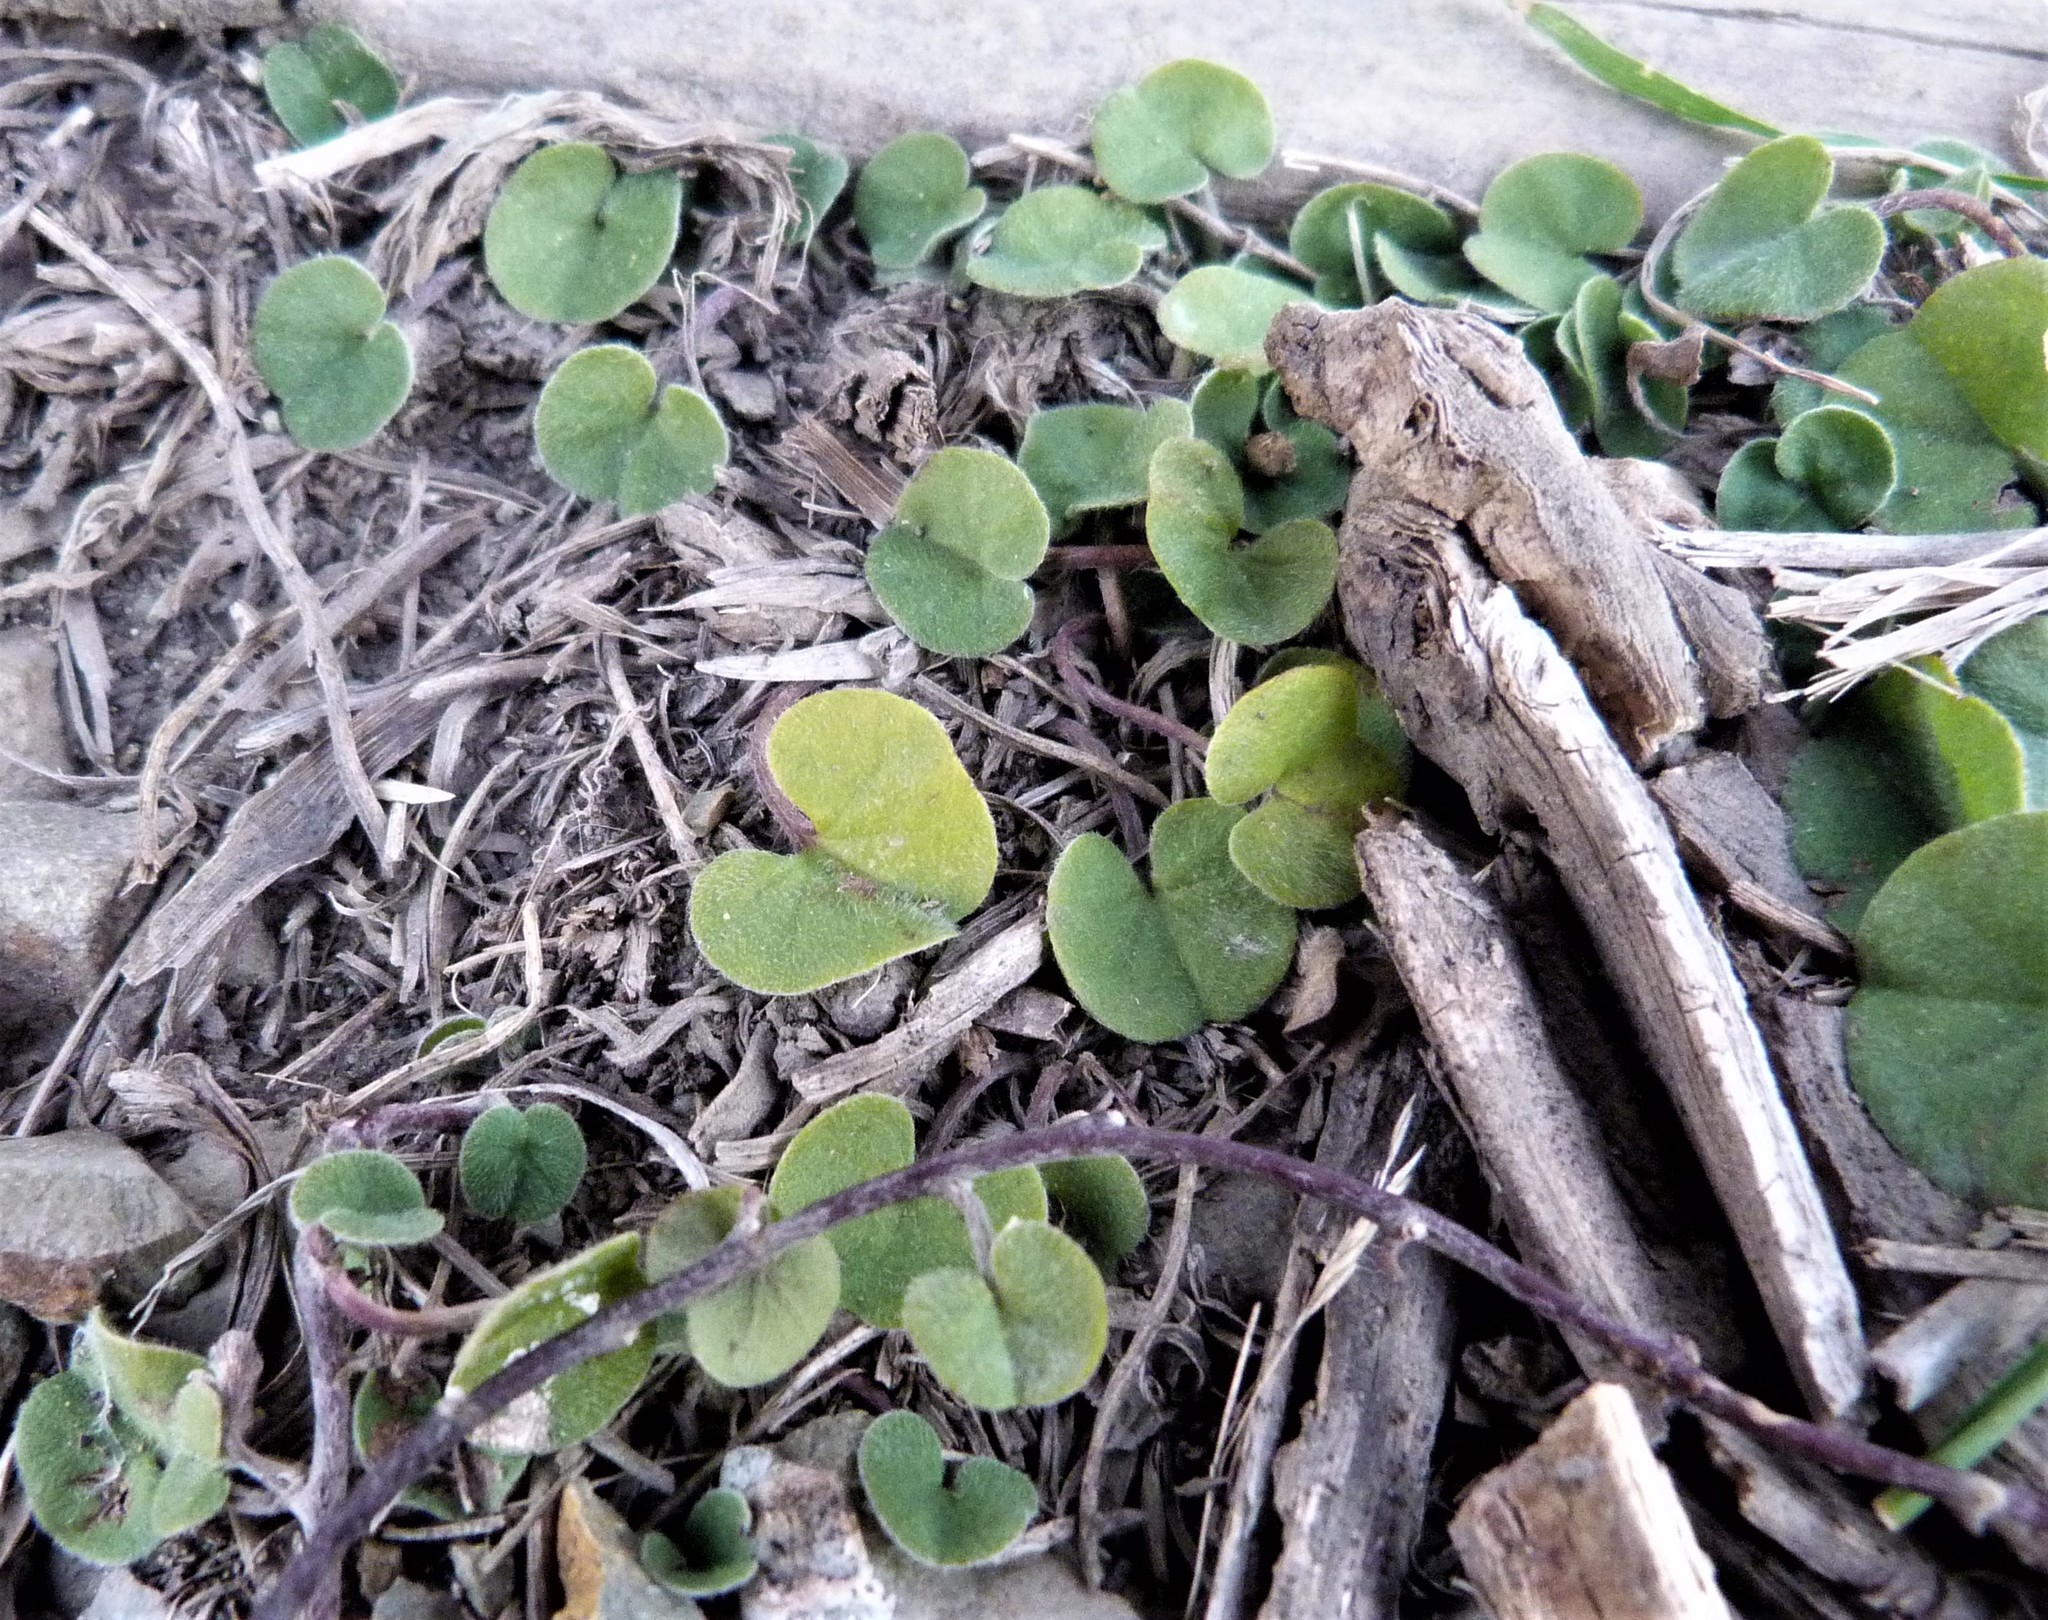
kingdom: Plantae
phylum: Tracheophyta
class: Magnoliopsida
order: Solanales
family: Convolvulaceae
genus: Dichondra
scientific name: Dichondra repens
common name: Kidneyweed
